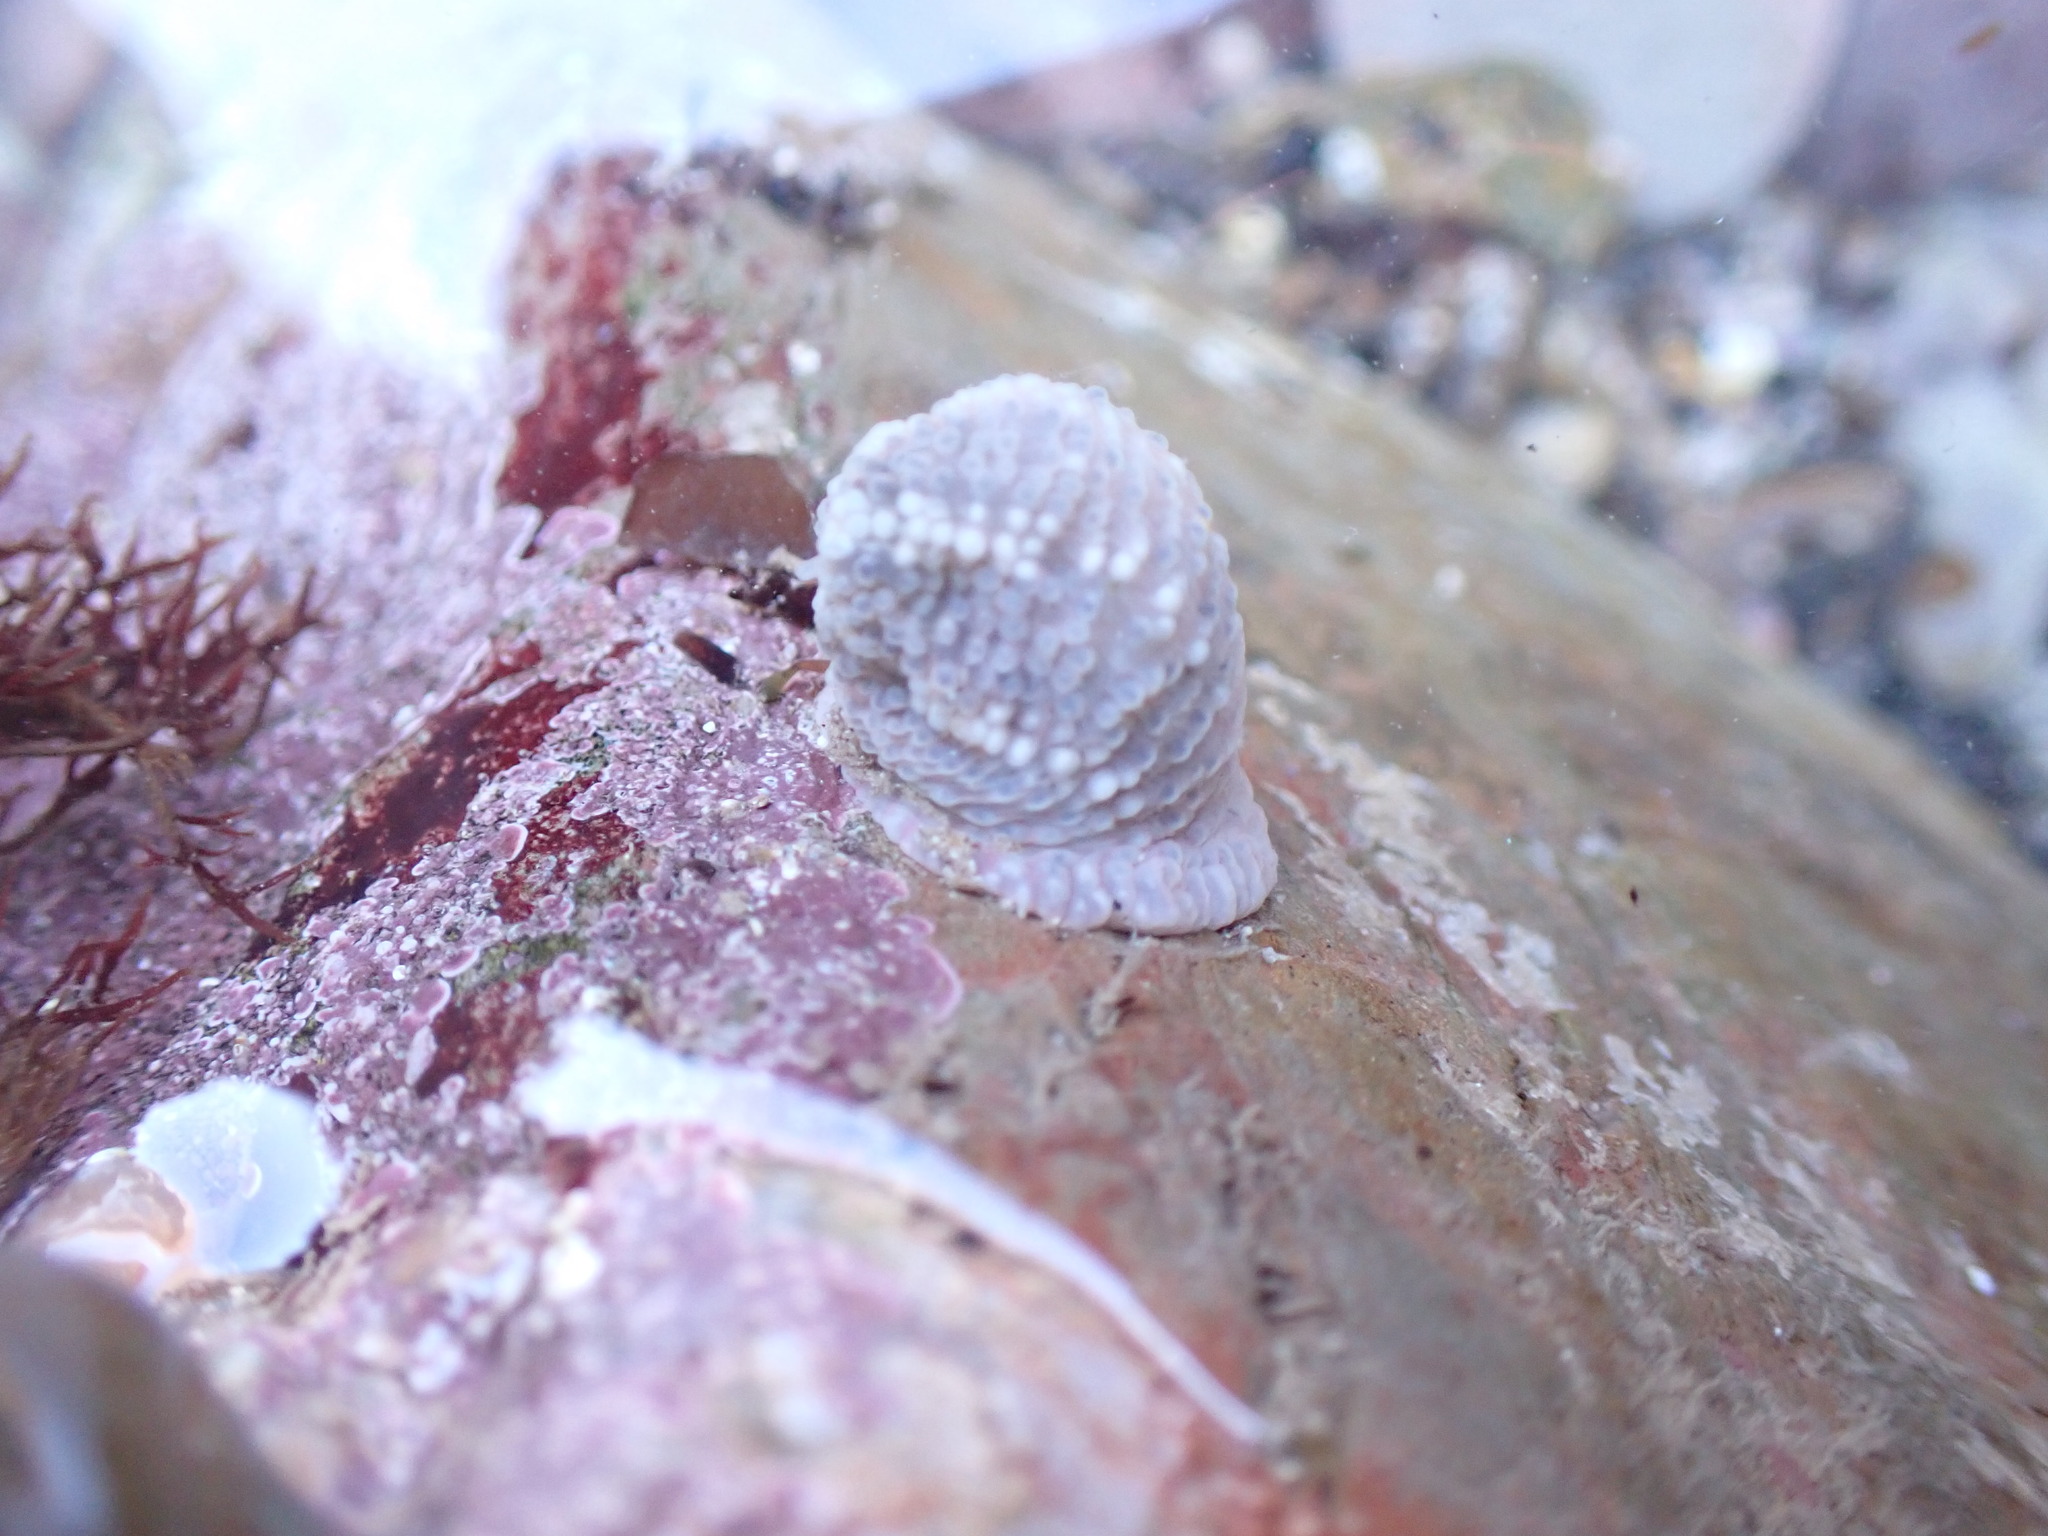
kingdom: Animalia
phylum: Cnidaria
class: Anthozoa
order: Actiniaria
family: Actiniidae
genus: Bunodactis
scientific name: Bunodactis verrucosa
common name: Gem anemone
